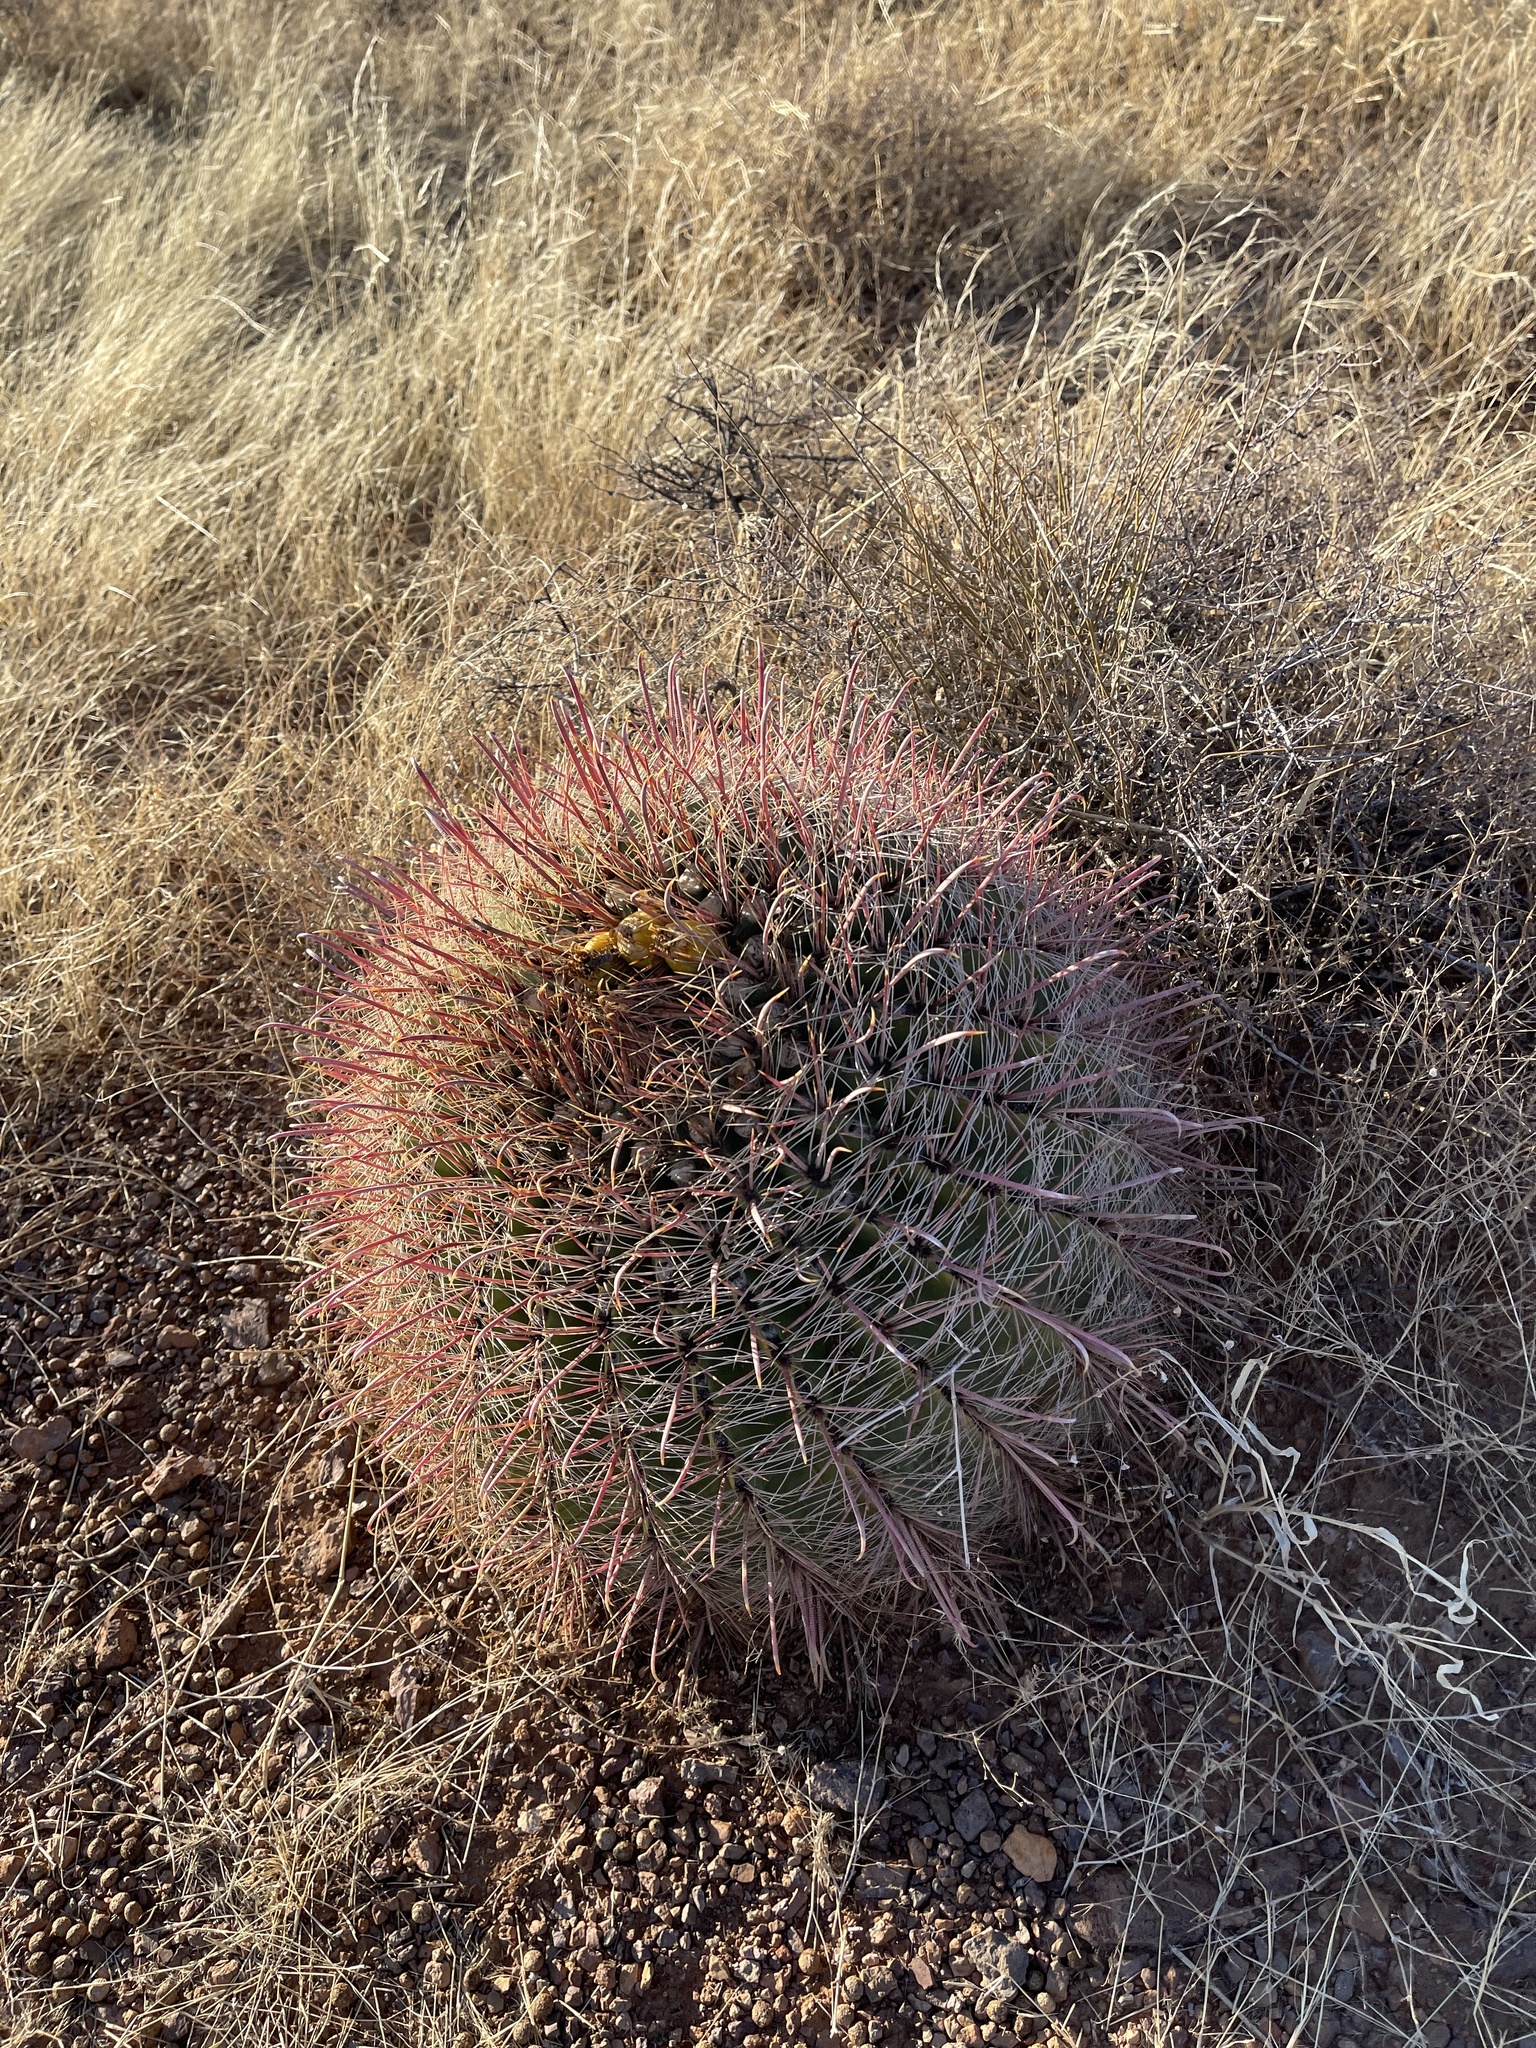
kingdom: Plantae
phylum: Tracheophyta
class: Magnoliopsida
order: Caryophyllales
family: Cactaceae
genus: Ferocactus
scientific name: Ferocactus wislizeni
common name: Candy barrel cactus
